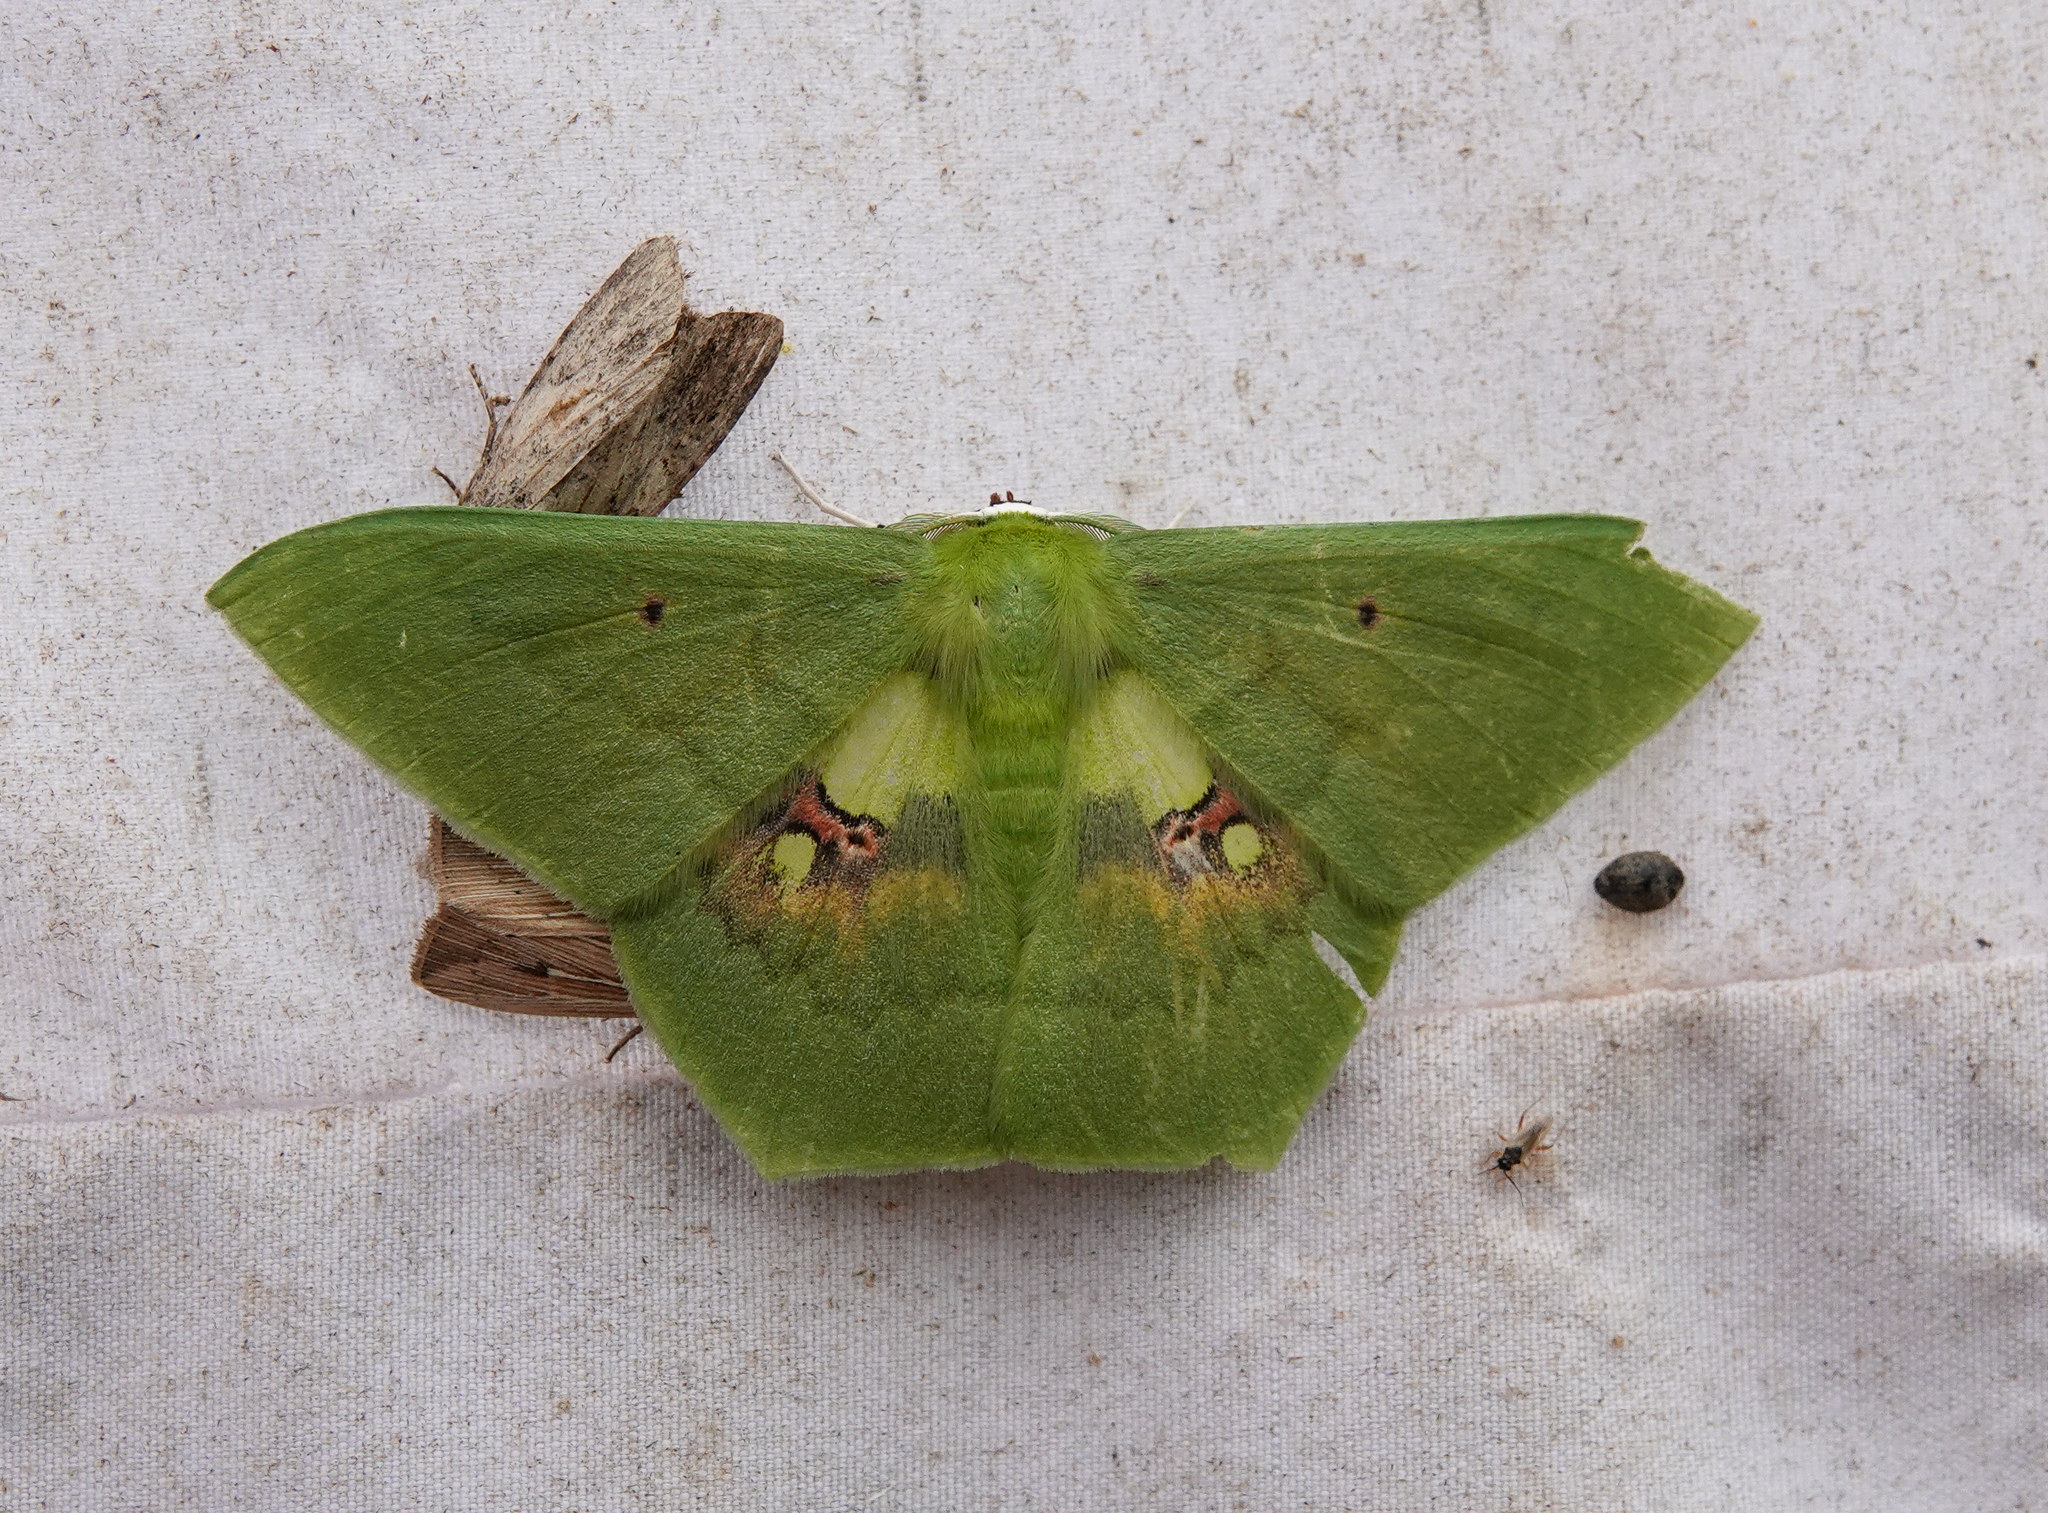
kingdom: Animalia
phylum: Arthropoda
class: Insecta
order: Lepidoptera
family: Geometridae
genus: Aporandria
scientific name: Aporandria specularia
